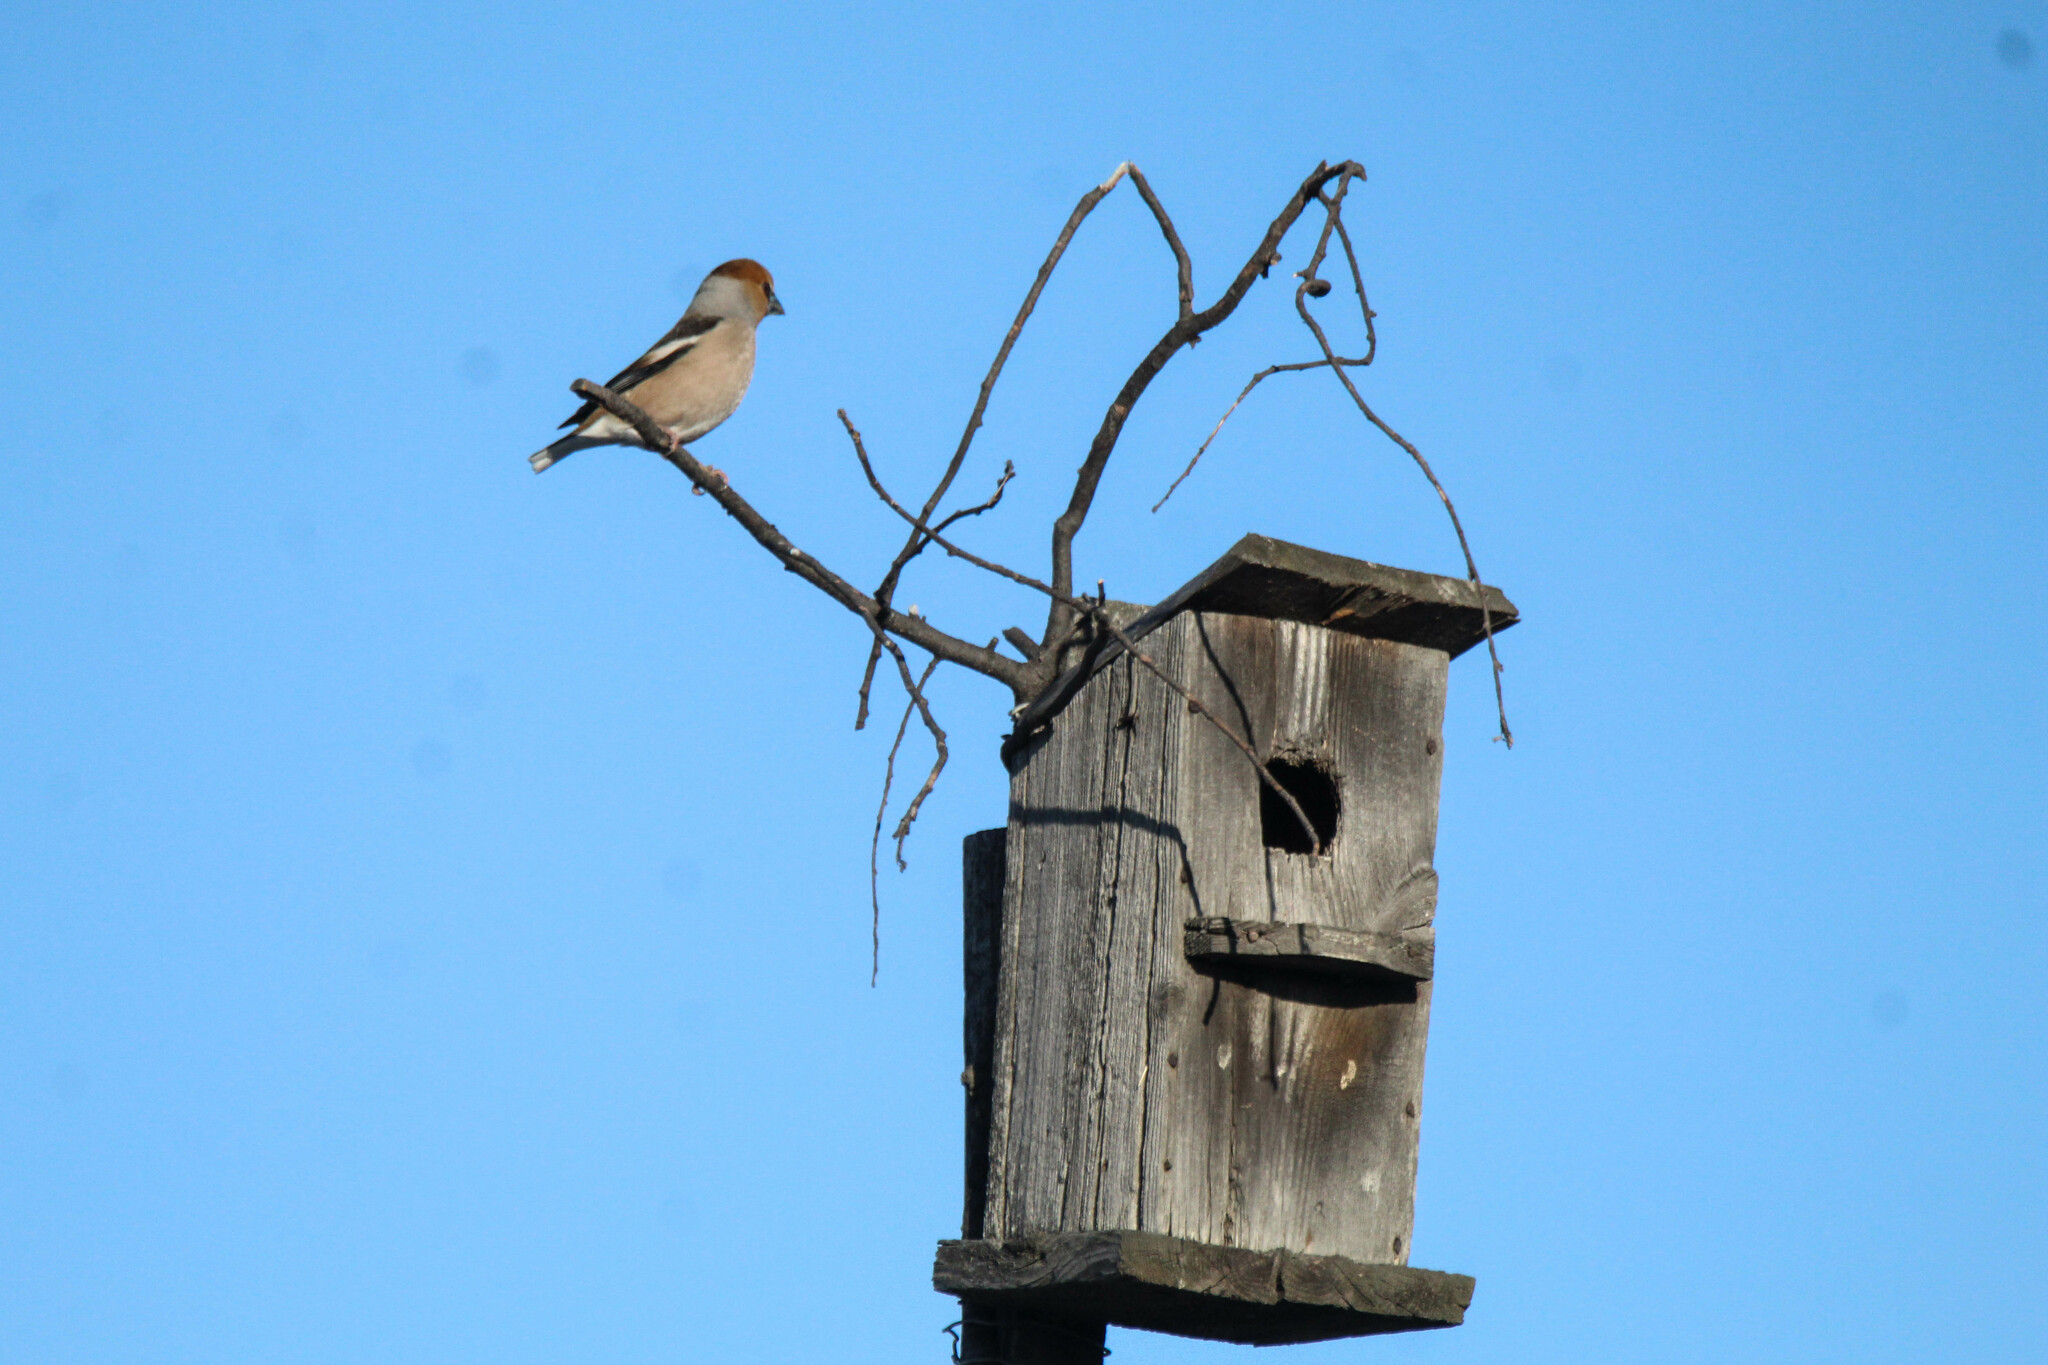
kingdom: Animalia
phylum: Chordata
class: Aves
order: Passeriformes
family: Fringillidae
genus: Coccothraustes
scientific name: Coccothraustes coccothraustes
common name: Hawfinch
